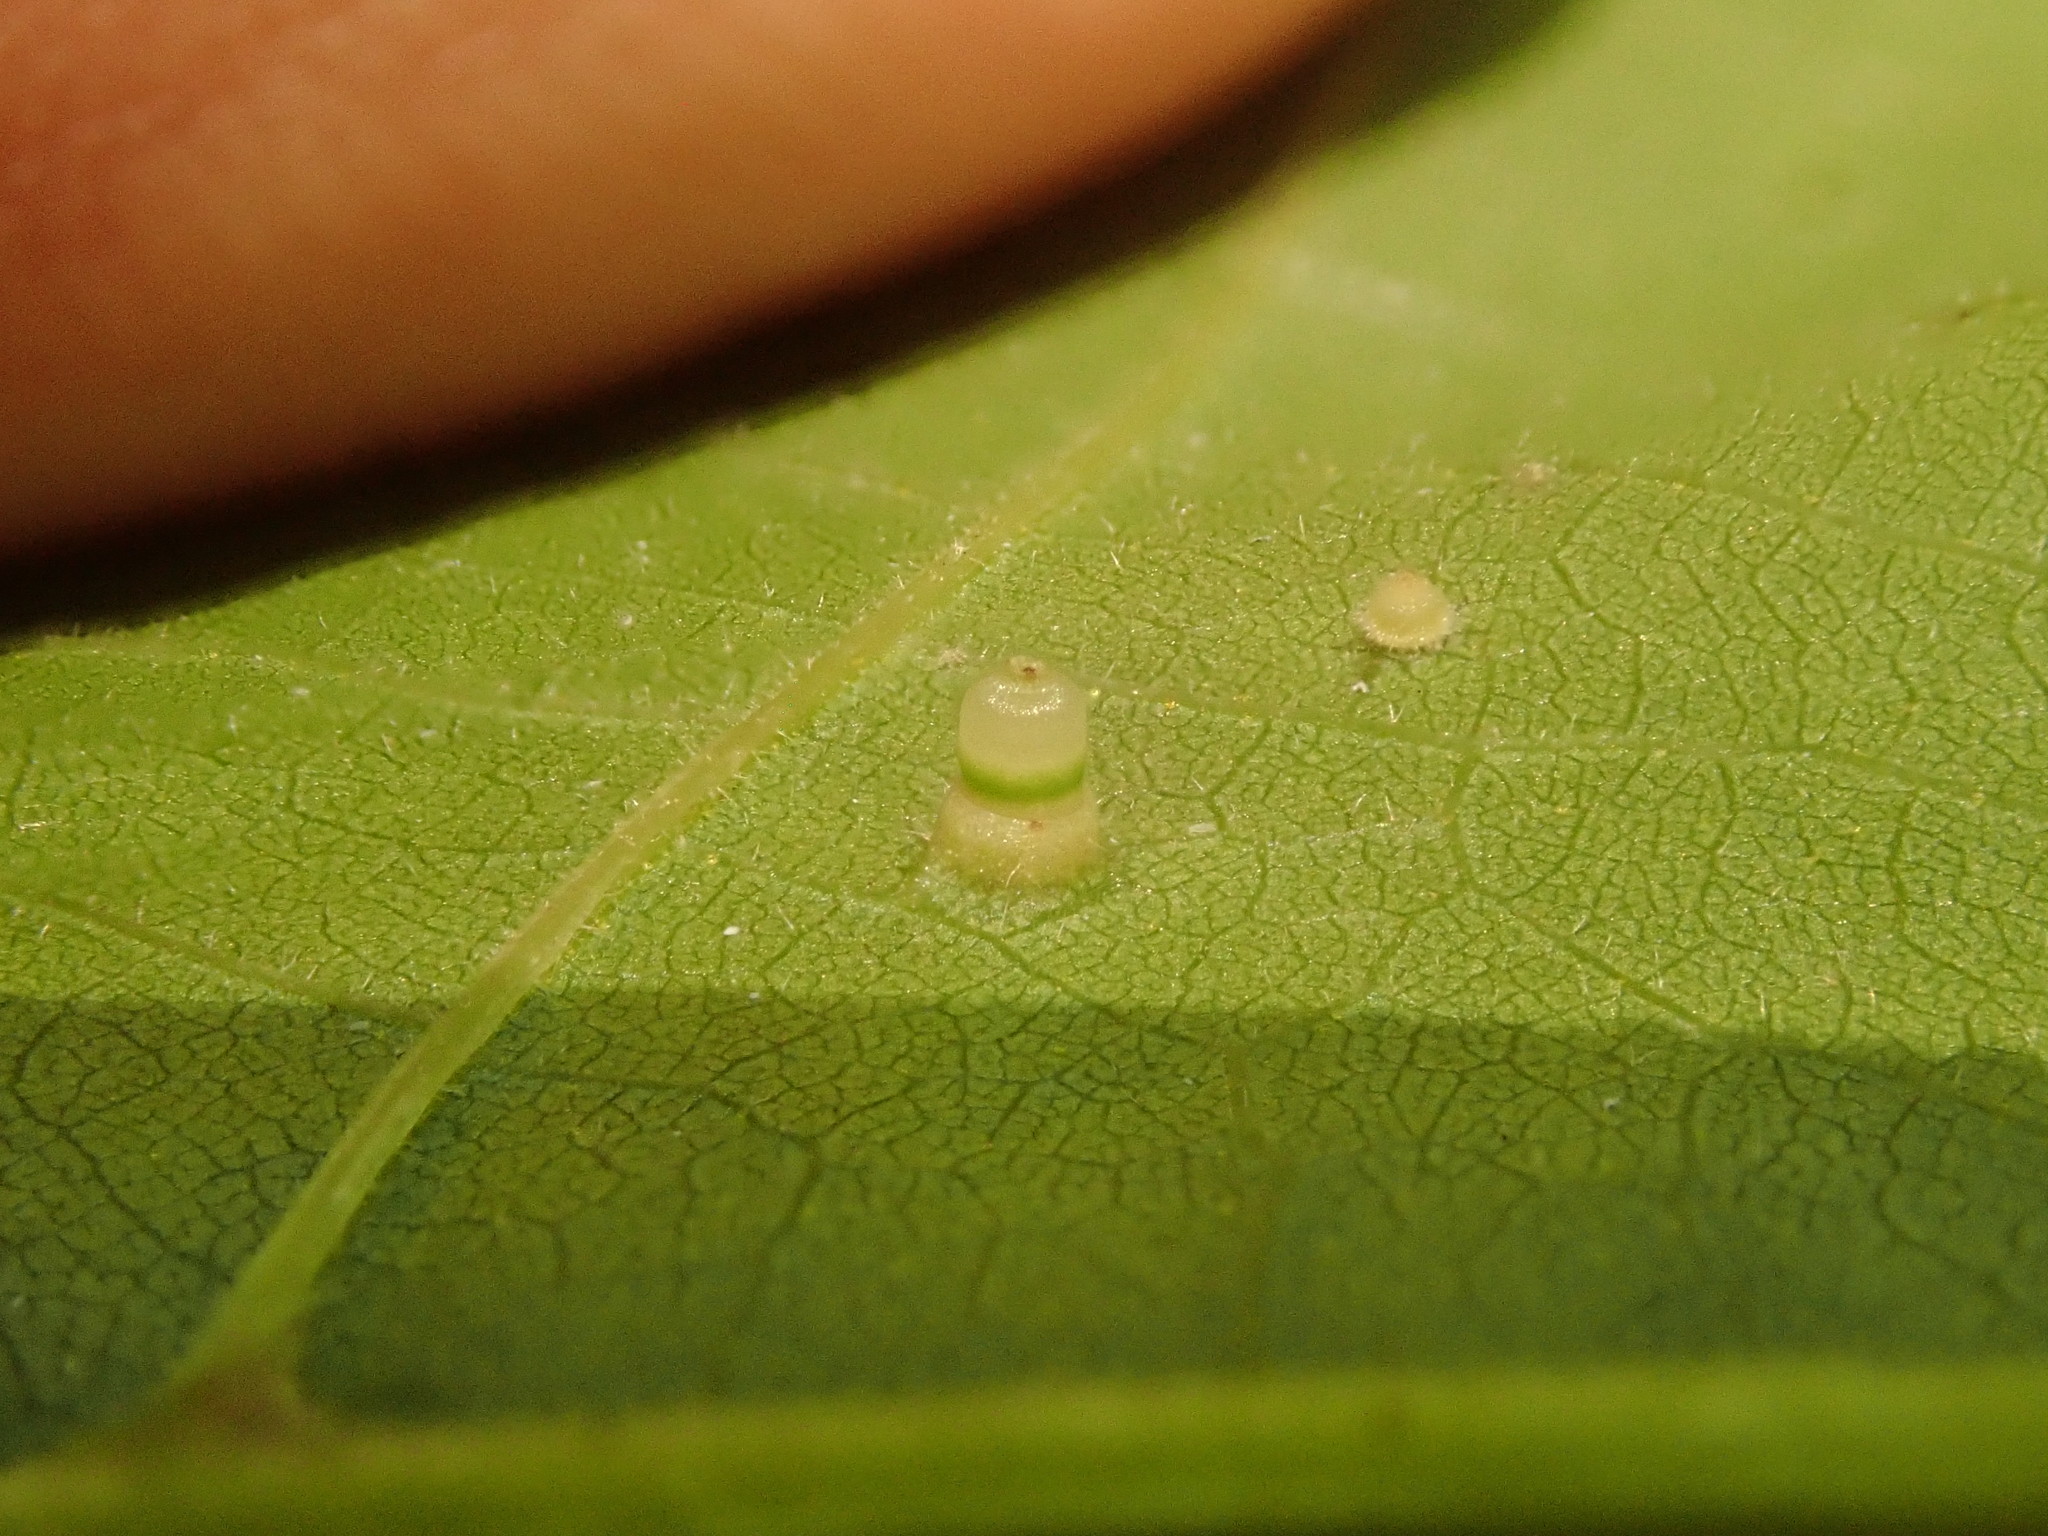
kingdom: Animalia
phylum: Arthropoda
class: Insecta
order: Diptera
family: Cecidomyiidae
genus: Caryomyia
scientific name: Caryomyia tubicola
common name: Hickory bullet gall midge
